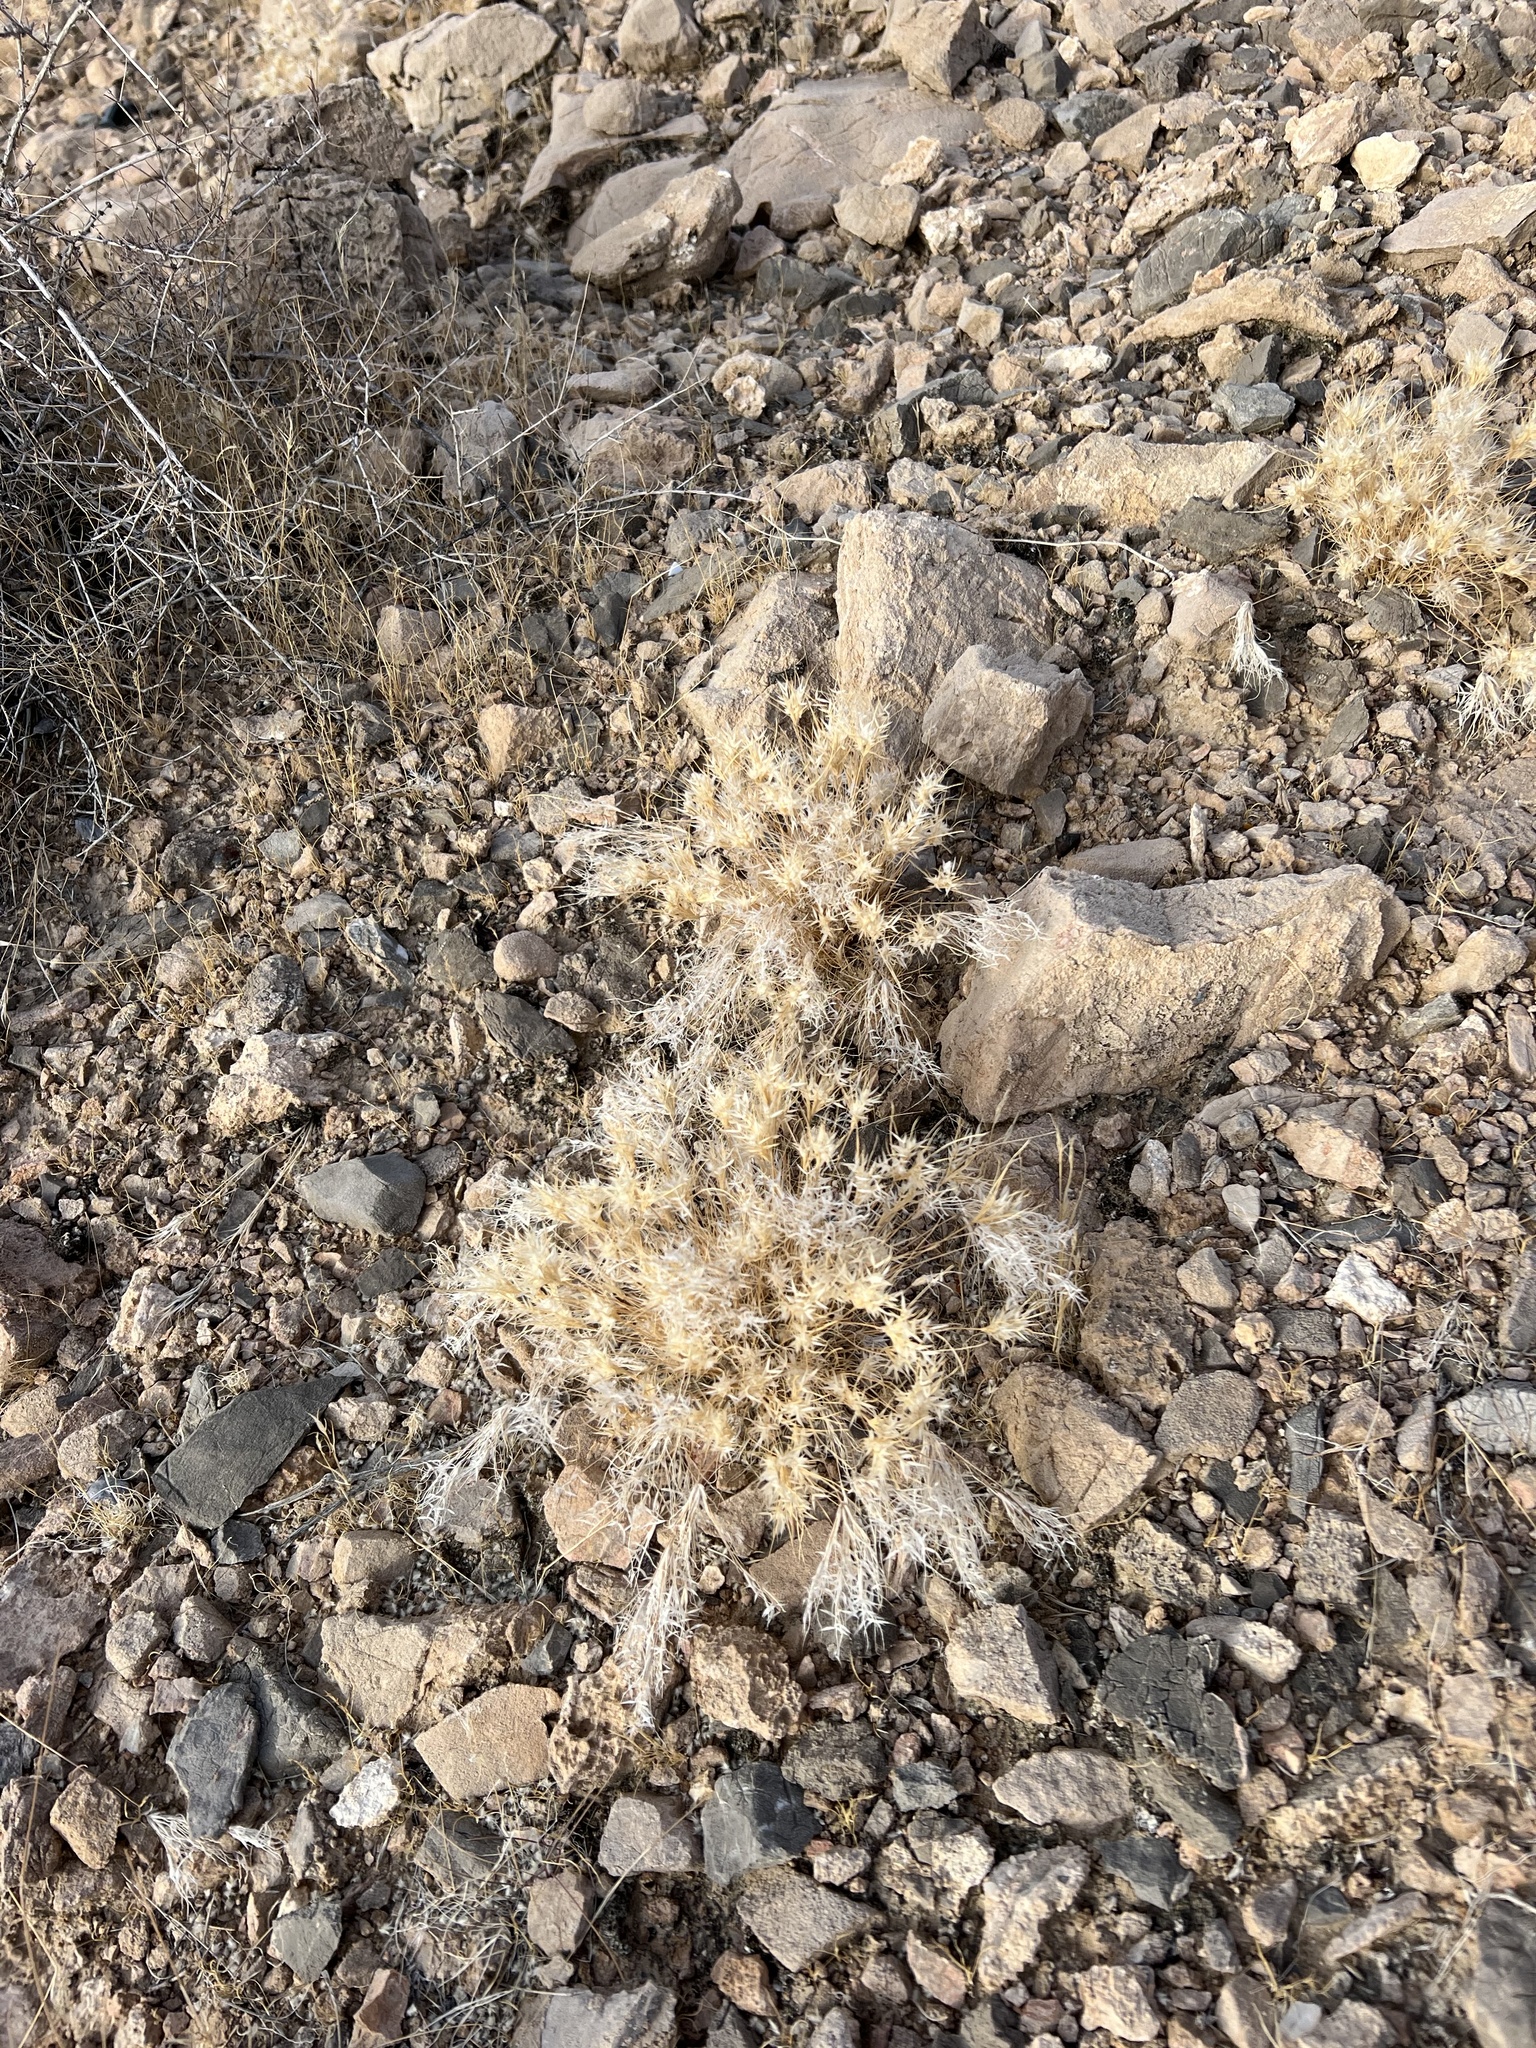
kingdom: Plantae
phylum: Tracheophyta
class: Liliopsida
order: Poales
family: Poaceae
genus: Dasyochloa
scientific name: Dasyochloa pulchella
